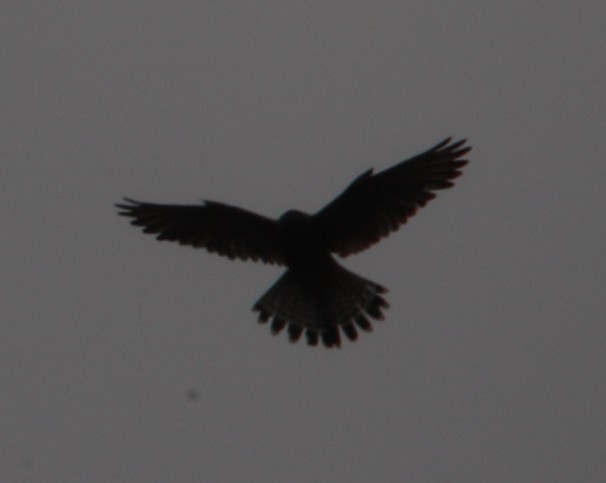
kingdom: Animalia
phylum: Chordata
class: Aves
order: Falconiformes
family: Falconidae
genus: Falco
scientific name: Falco rupicolus
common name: Rock kestrel
